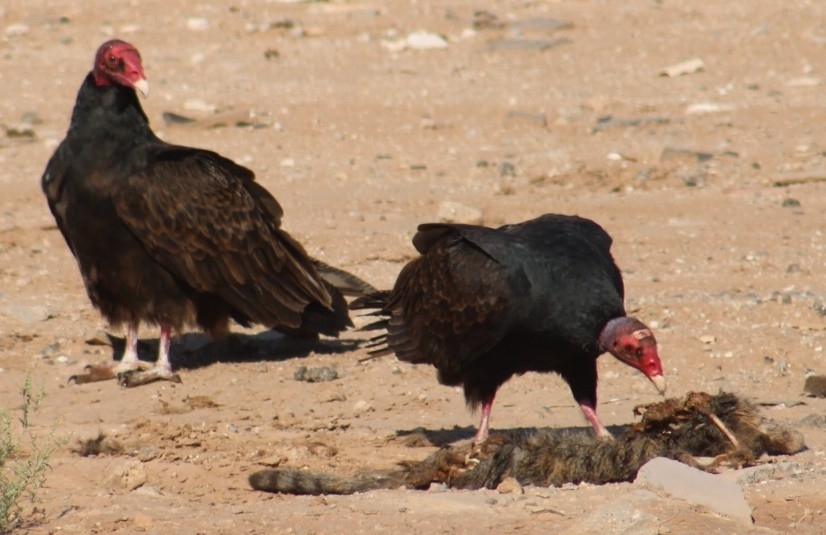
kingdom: Animalia
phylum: Chordata
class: Aves
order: Accipitriformes
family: Cathartidae
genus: Cathartes
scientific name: Cathartes aura
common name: Turkey vulture
